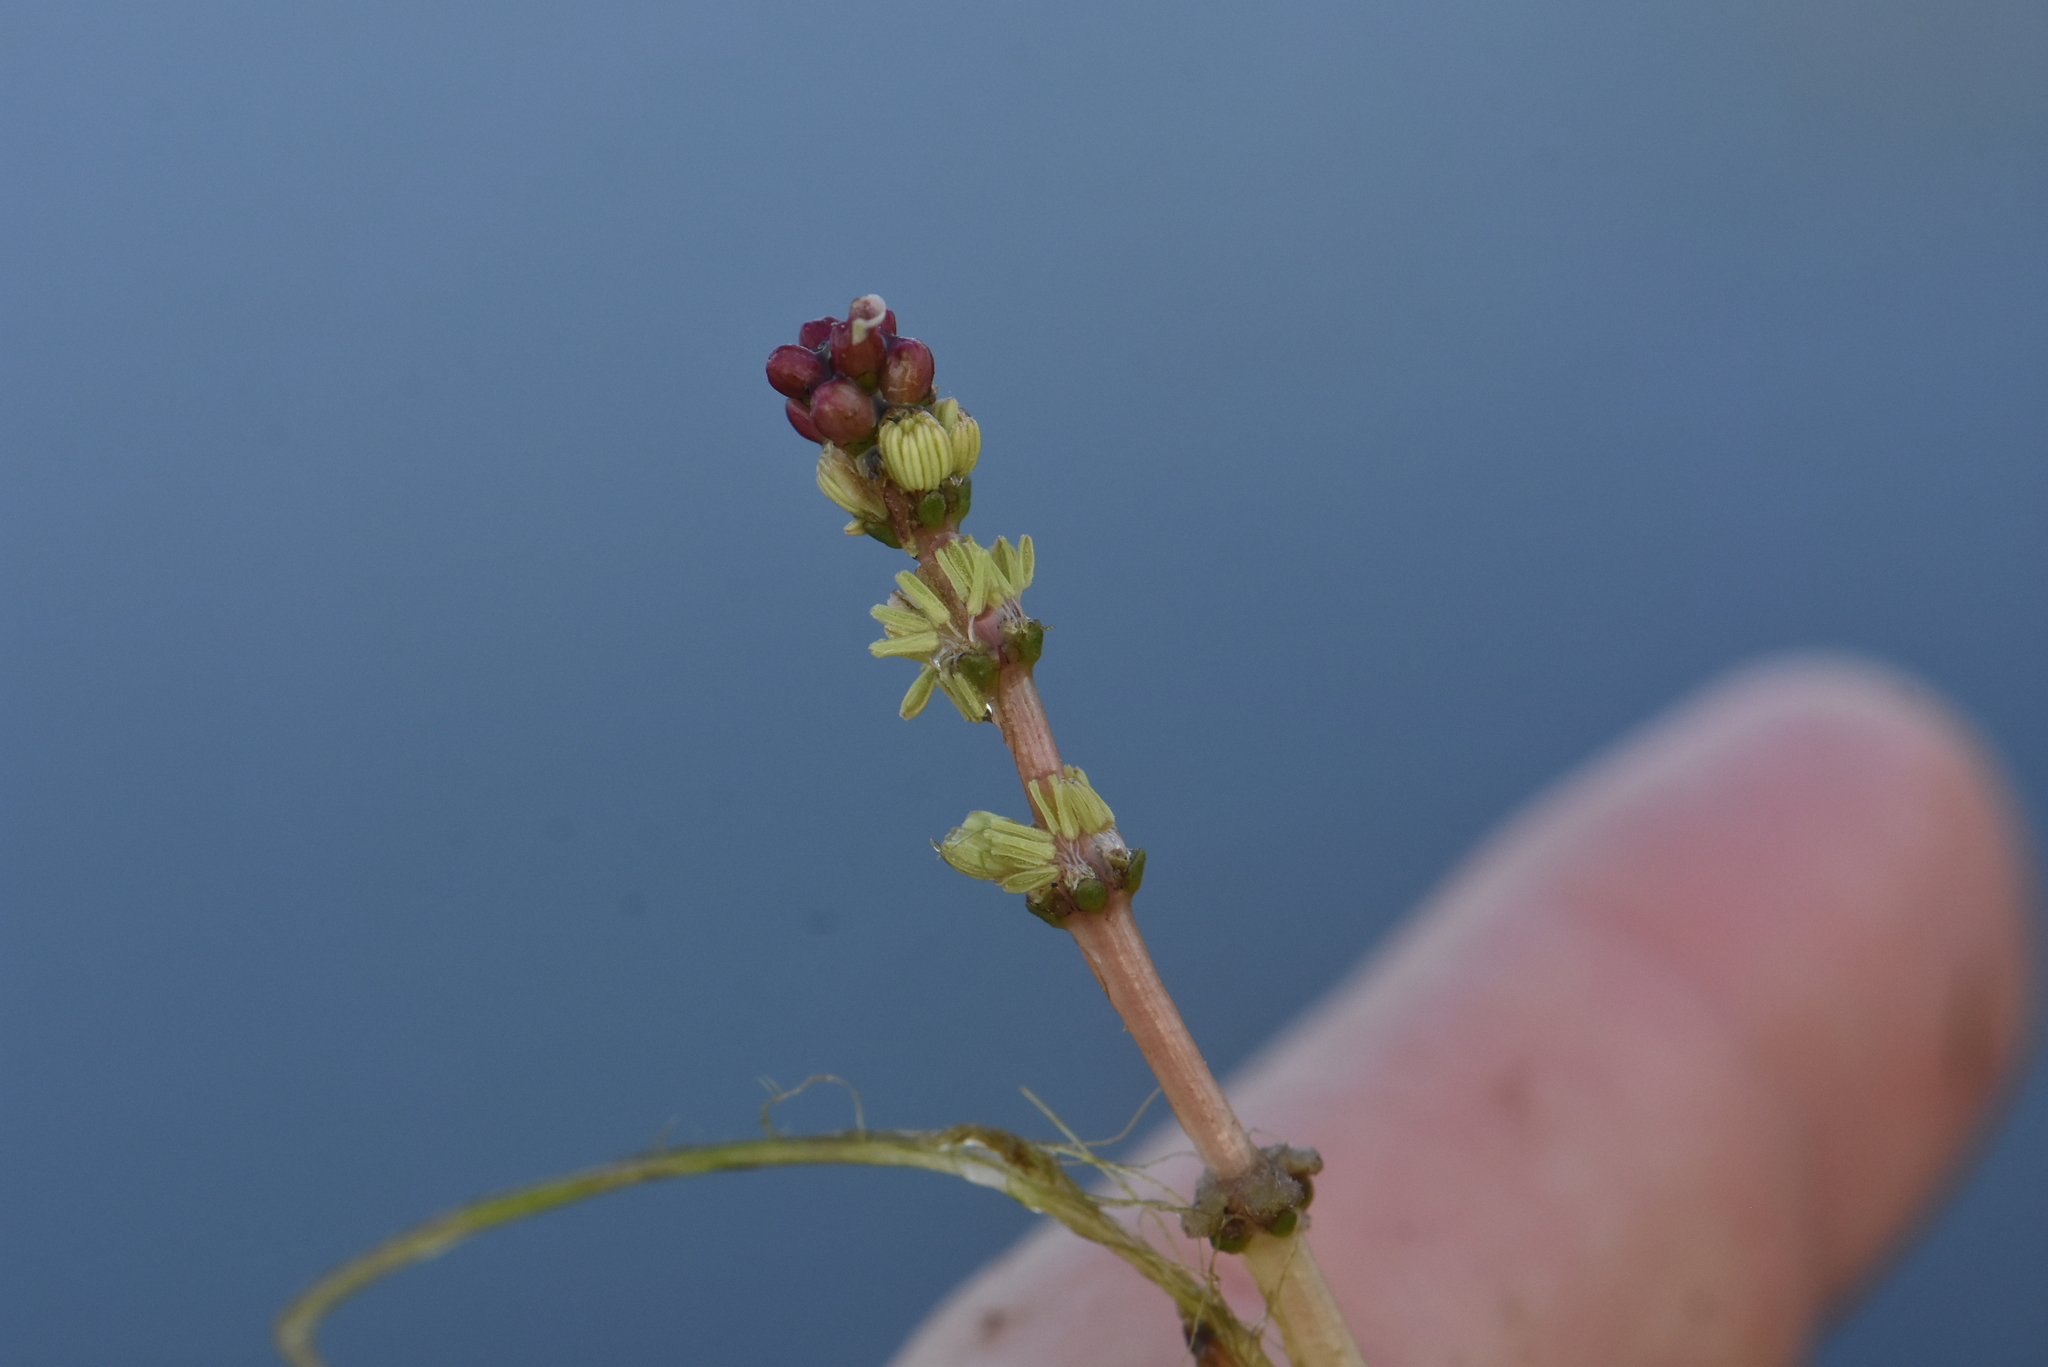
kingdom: Plantae
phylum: Tracheophyta
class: Magnoliopsida
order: Saxifragales
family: Haloragaceae
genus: Myriophyllum
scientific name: Myriophyllum spicatum
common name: Spiked water-milfoil
